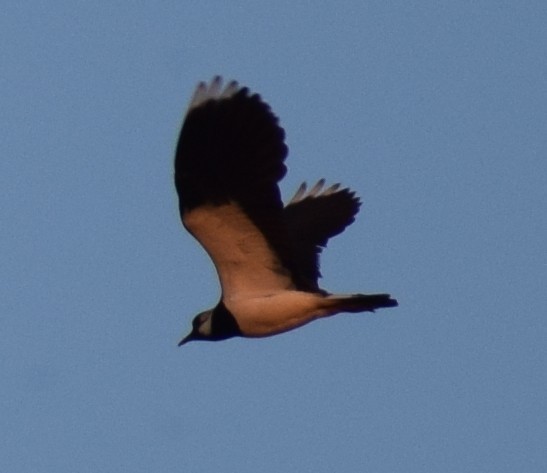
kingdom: Animalia
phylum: Chordata
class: Aves
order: Charadriiformes
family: Charadriidae
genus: Vanellus
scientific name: Vanellus vanellus
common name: Northern lapwing
